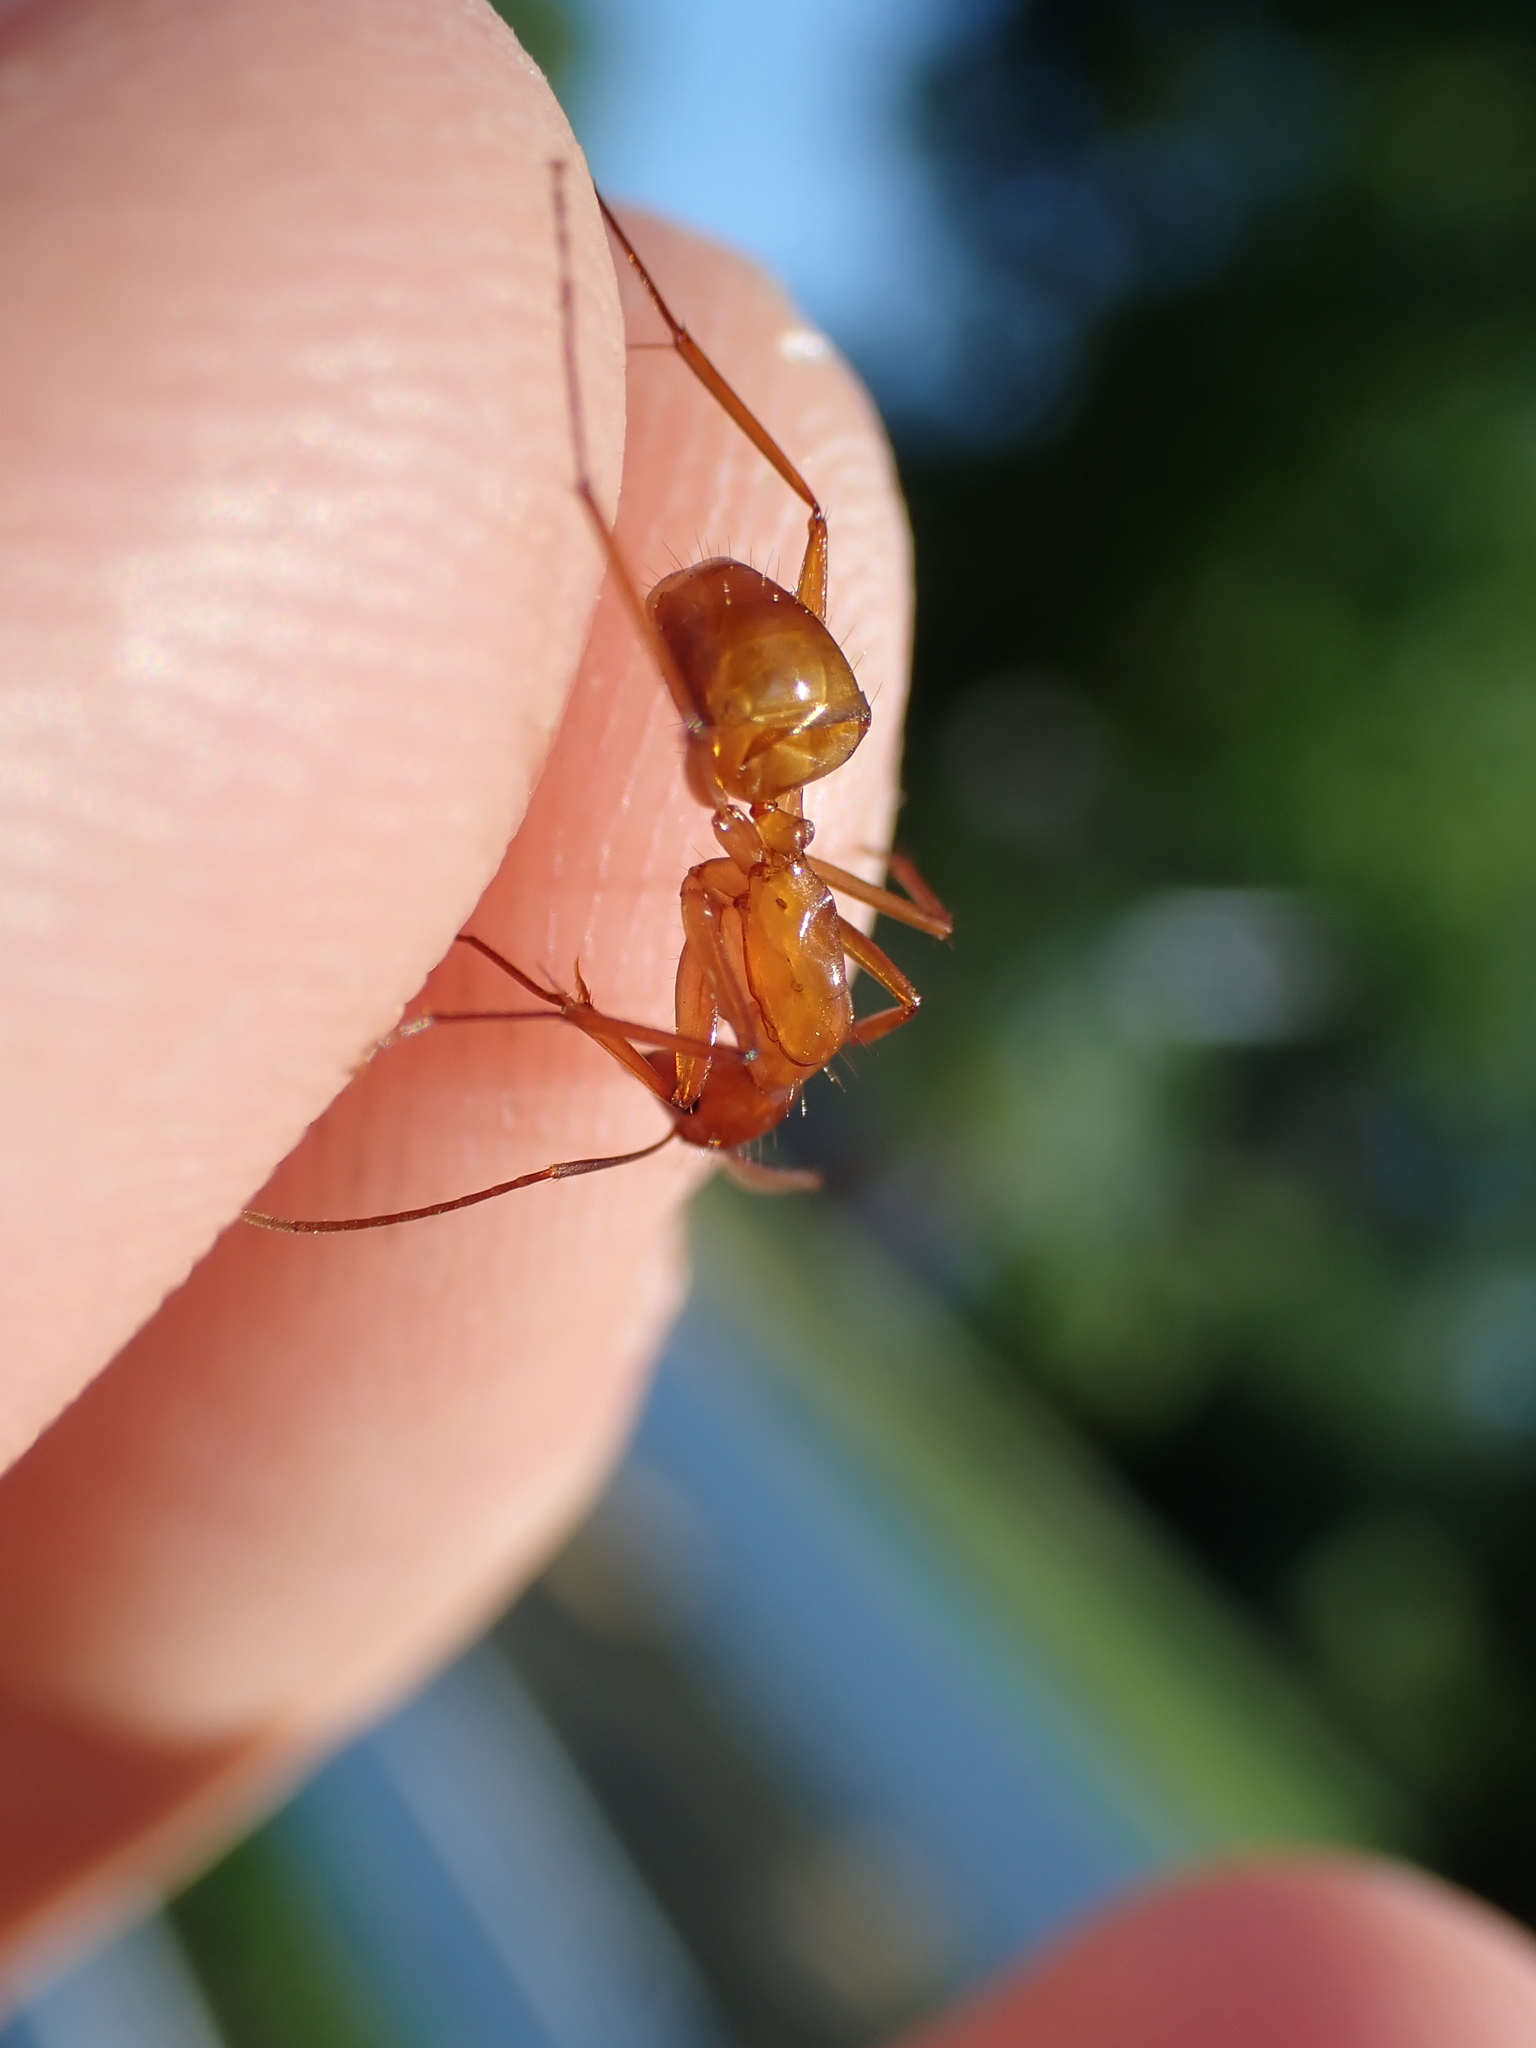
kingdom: Animalia
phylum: Arthropoda
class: Insecta
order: Hymenoptera
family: Formicidae
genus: Camponotus
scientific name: Camponotus castaneus
